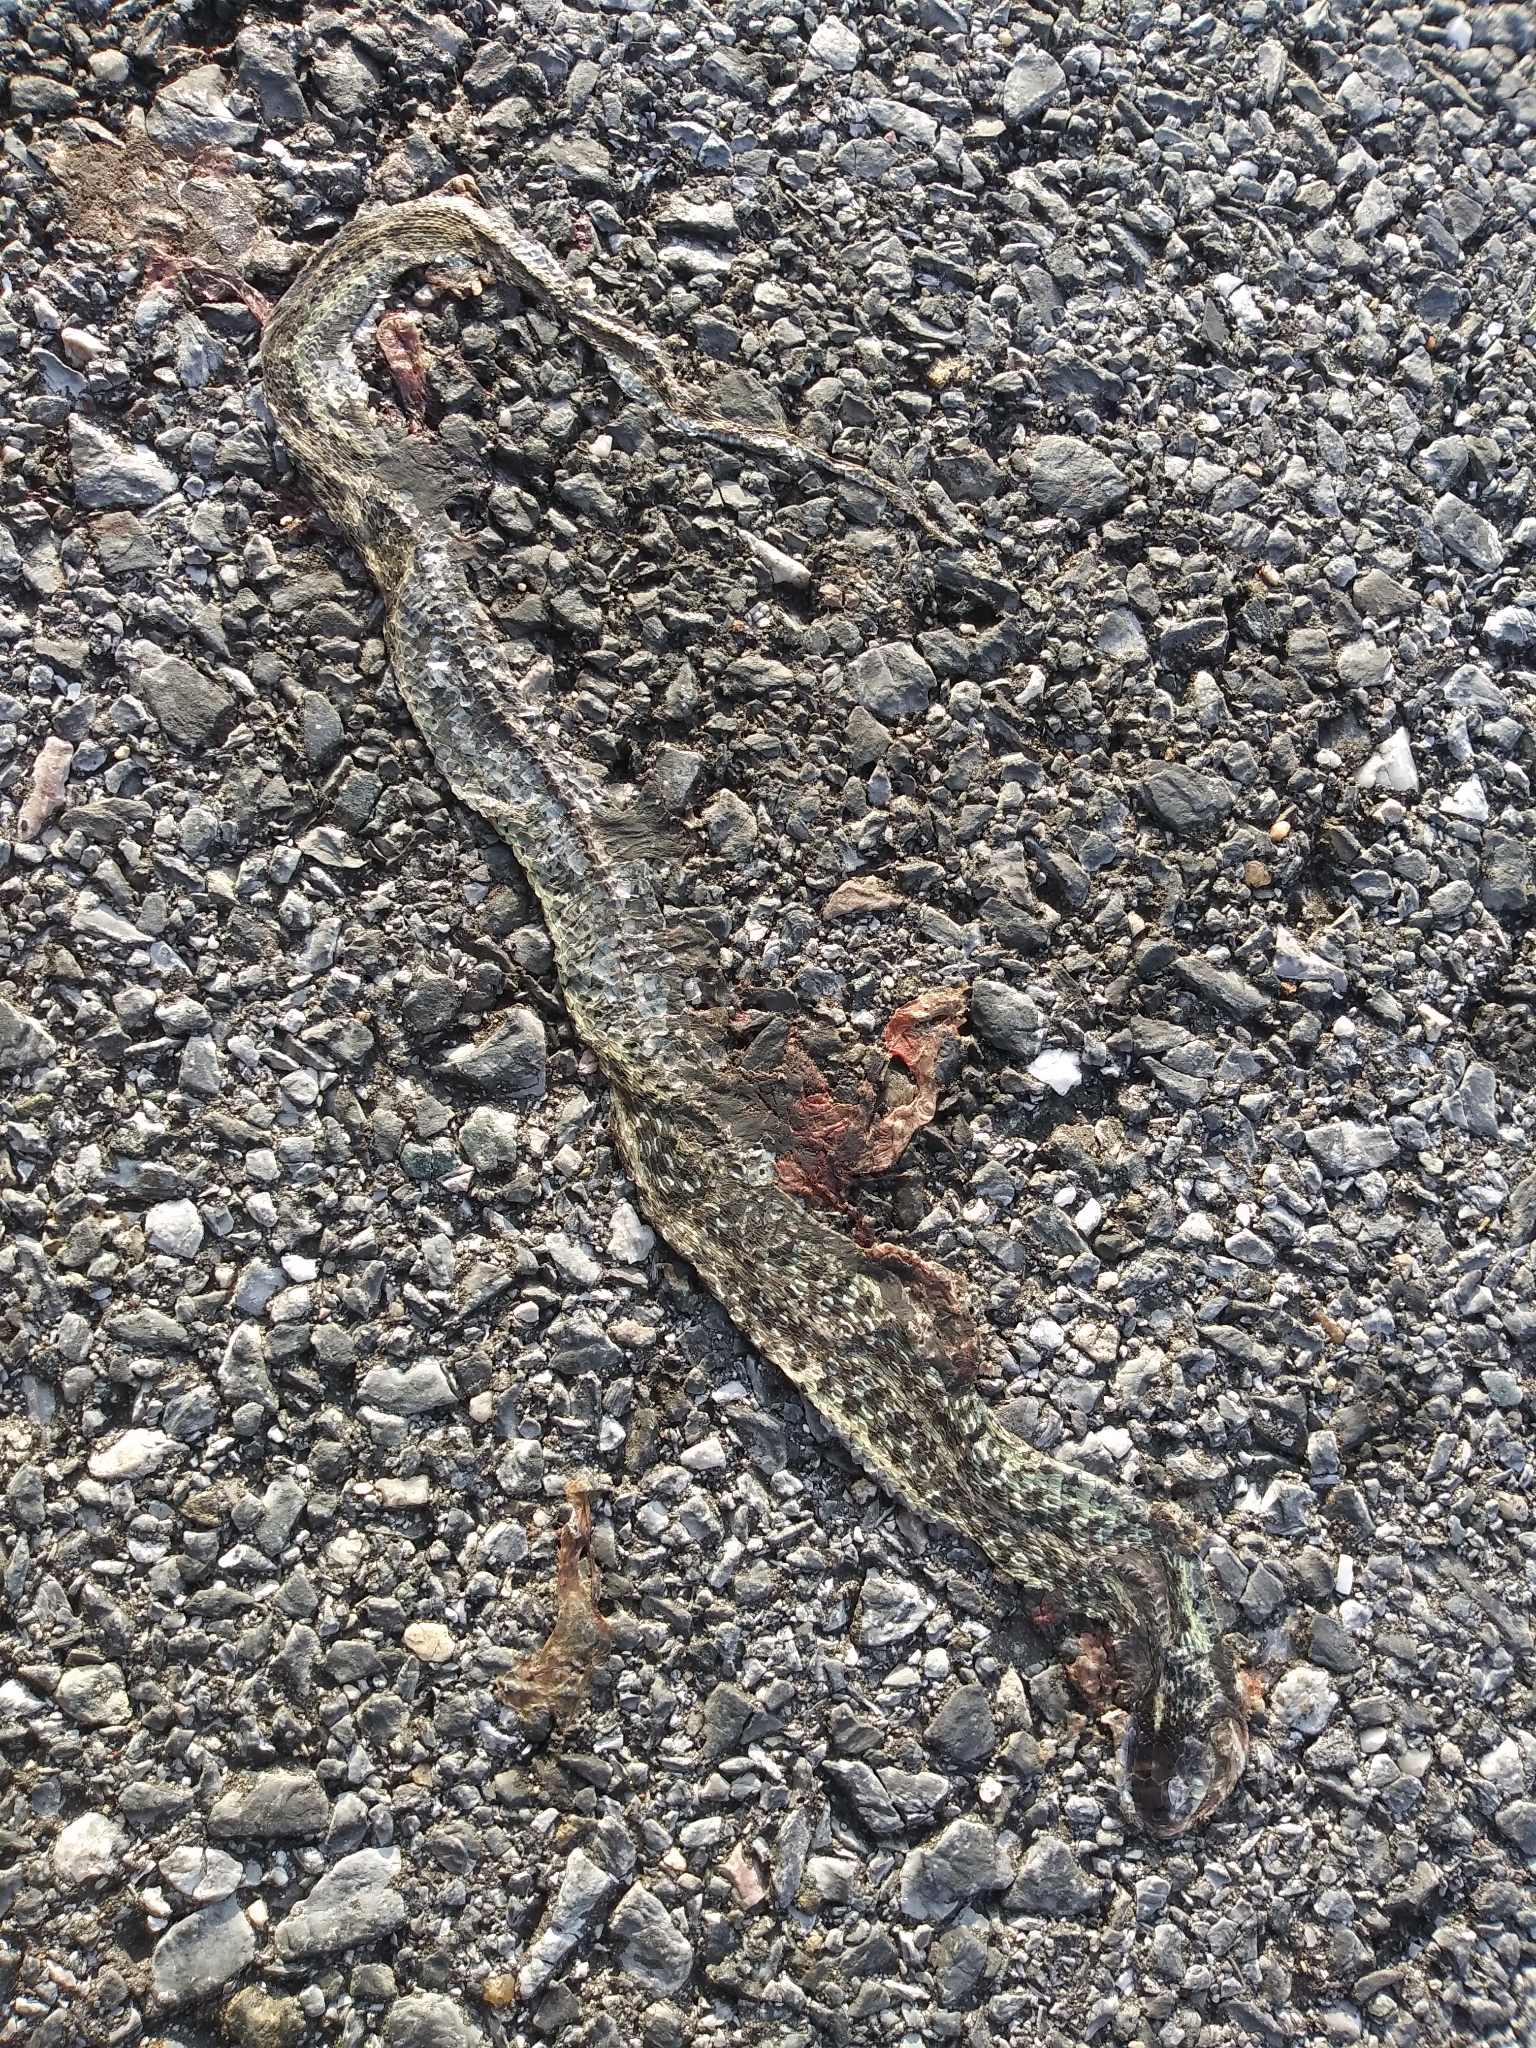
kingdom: Animalia
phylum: Chordata
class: Squamata
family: Colubridae
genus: Thamnophis
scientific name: Thamnophis sirtalis
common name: Common garter snake
